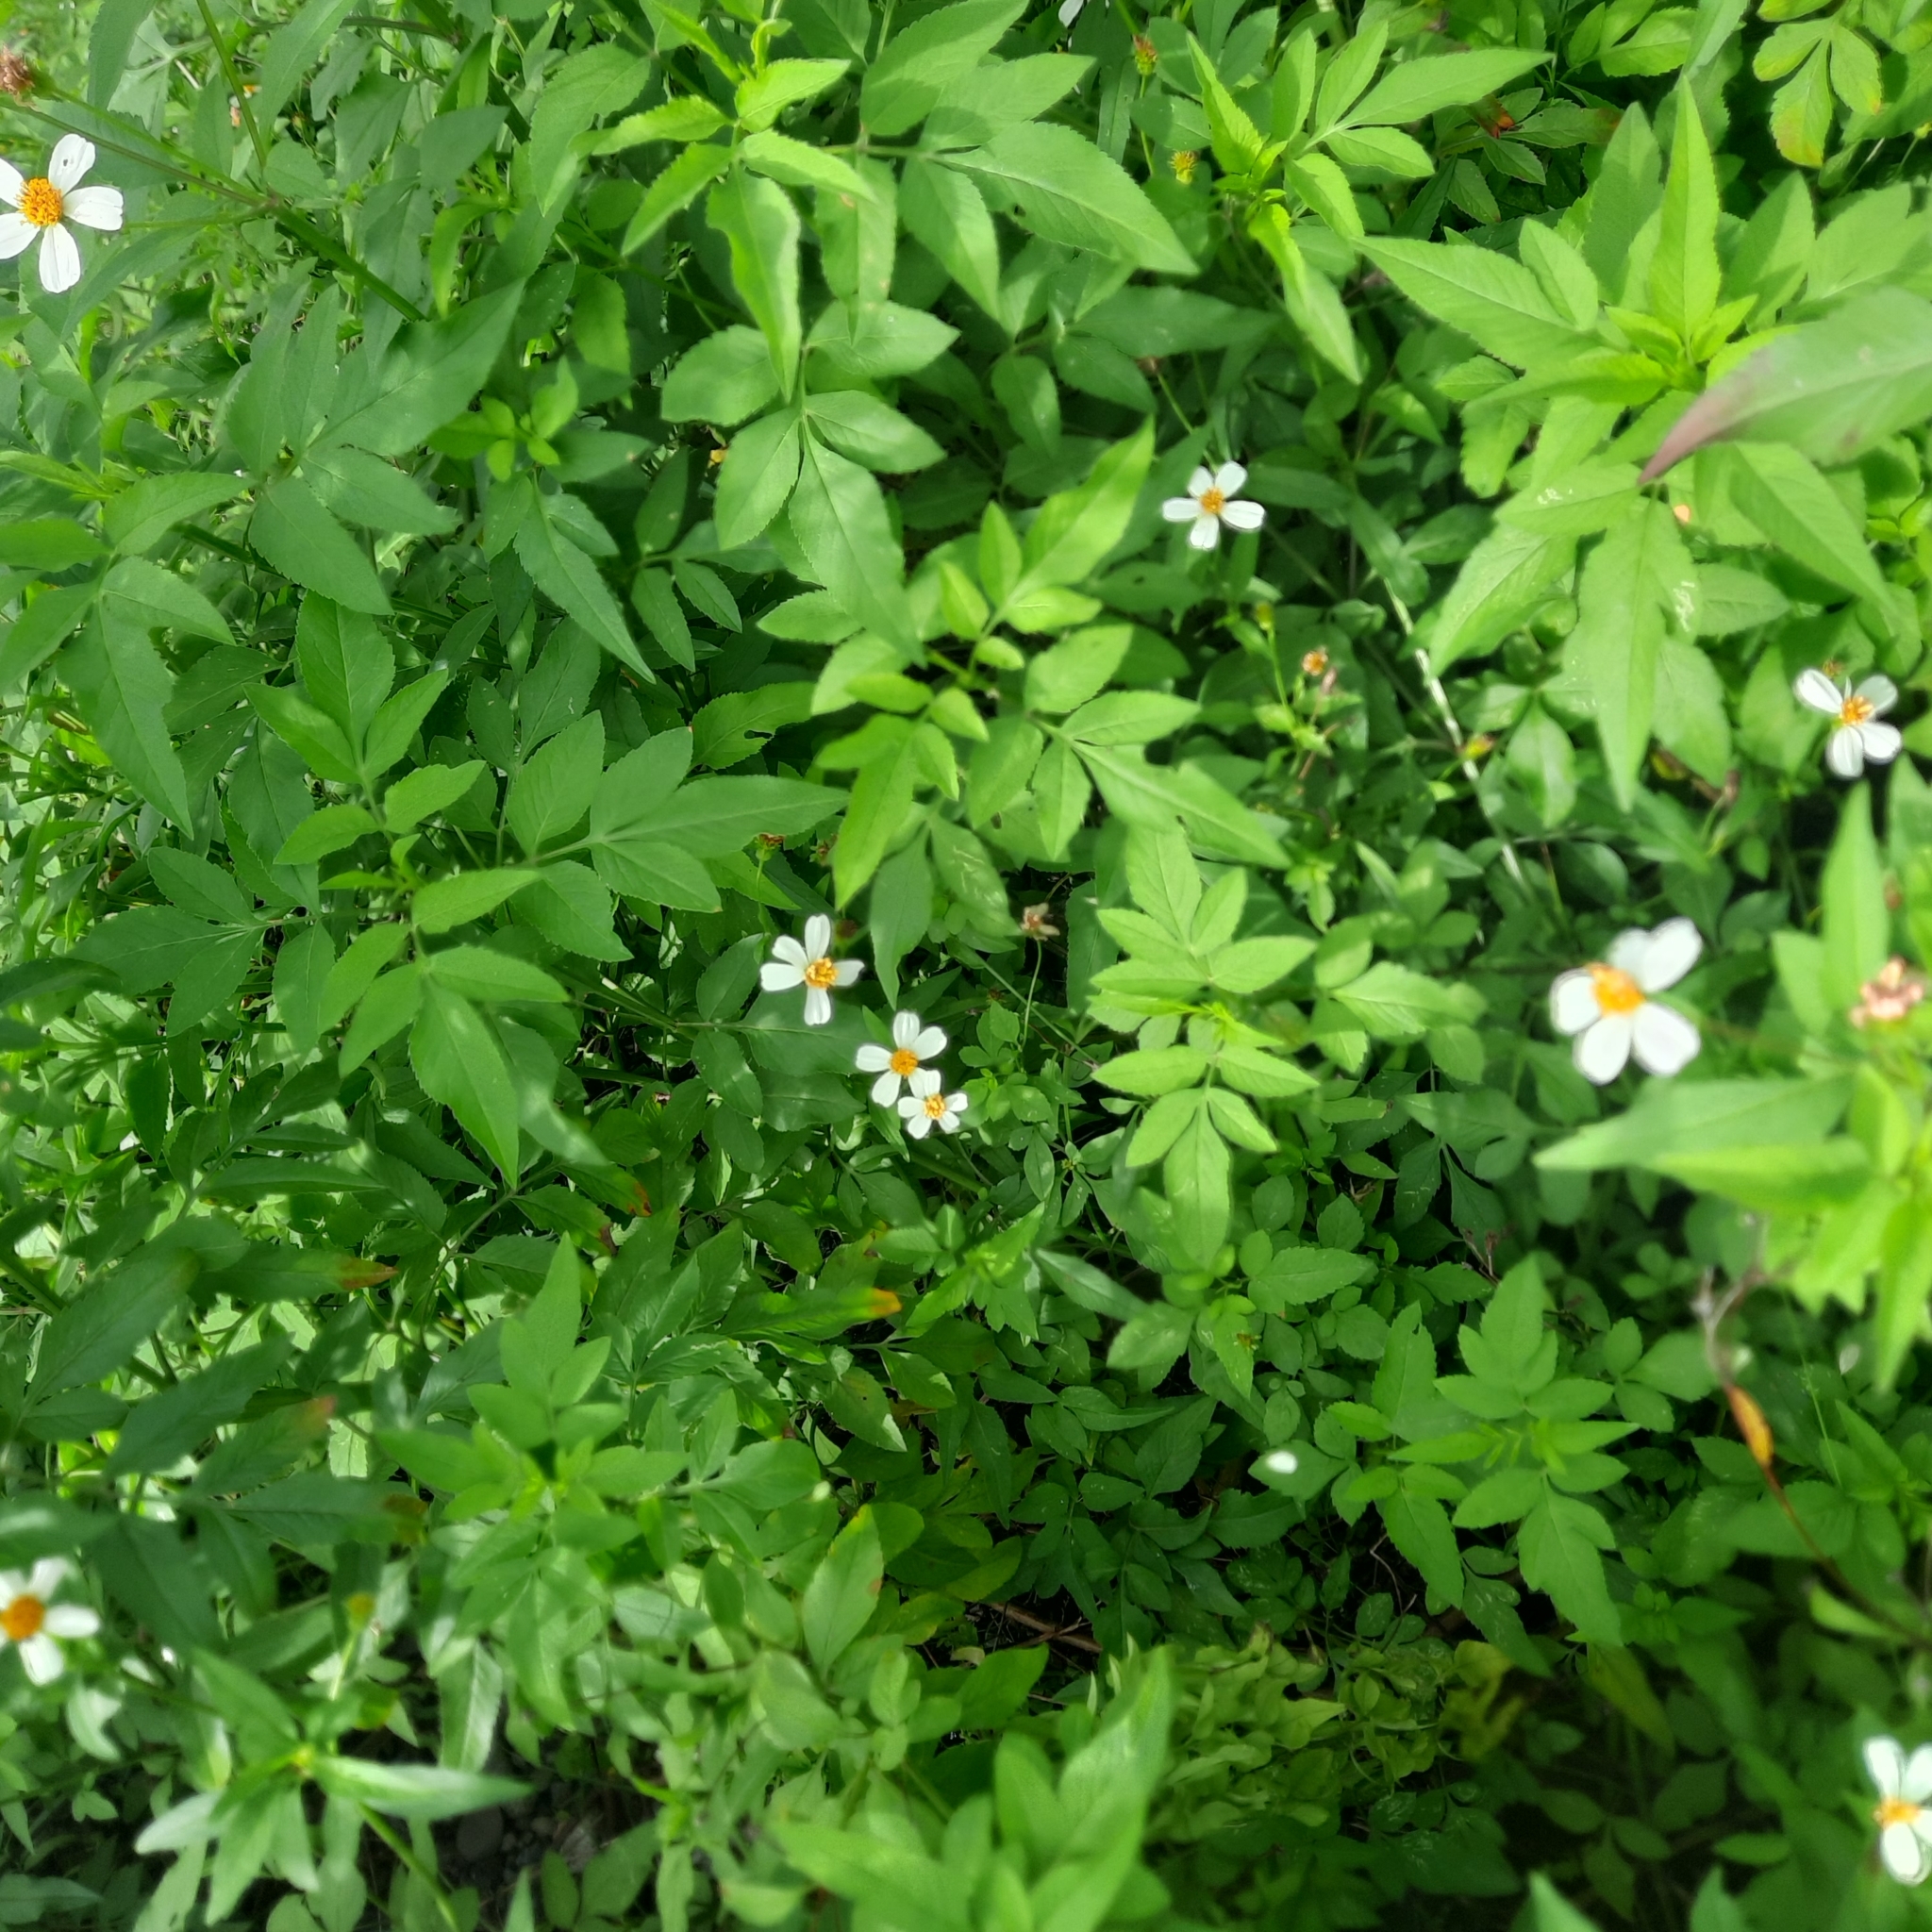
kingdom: Plantae
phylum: Tracheophyta
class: Magnoliopsida
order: Asterales
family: Asteraceae
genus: Bidens
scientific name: Bidens alba
